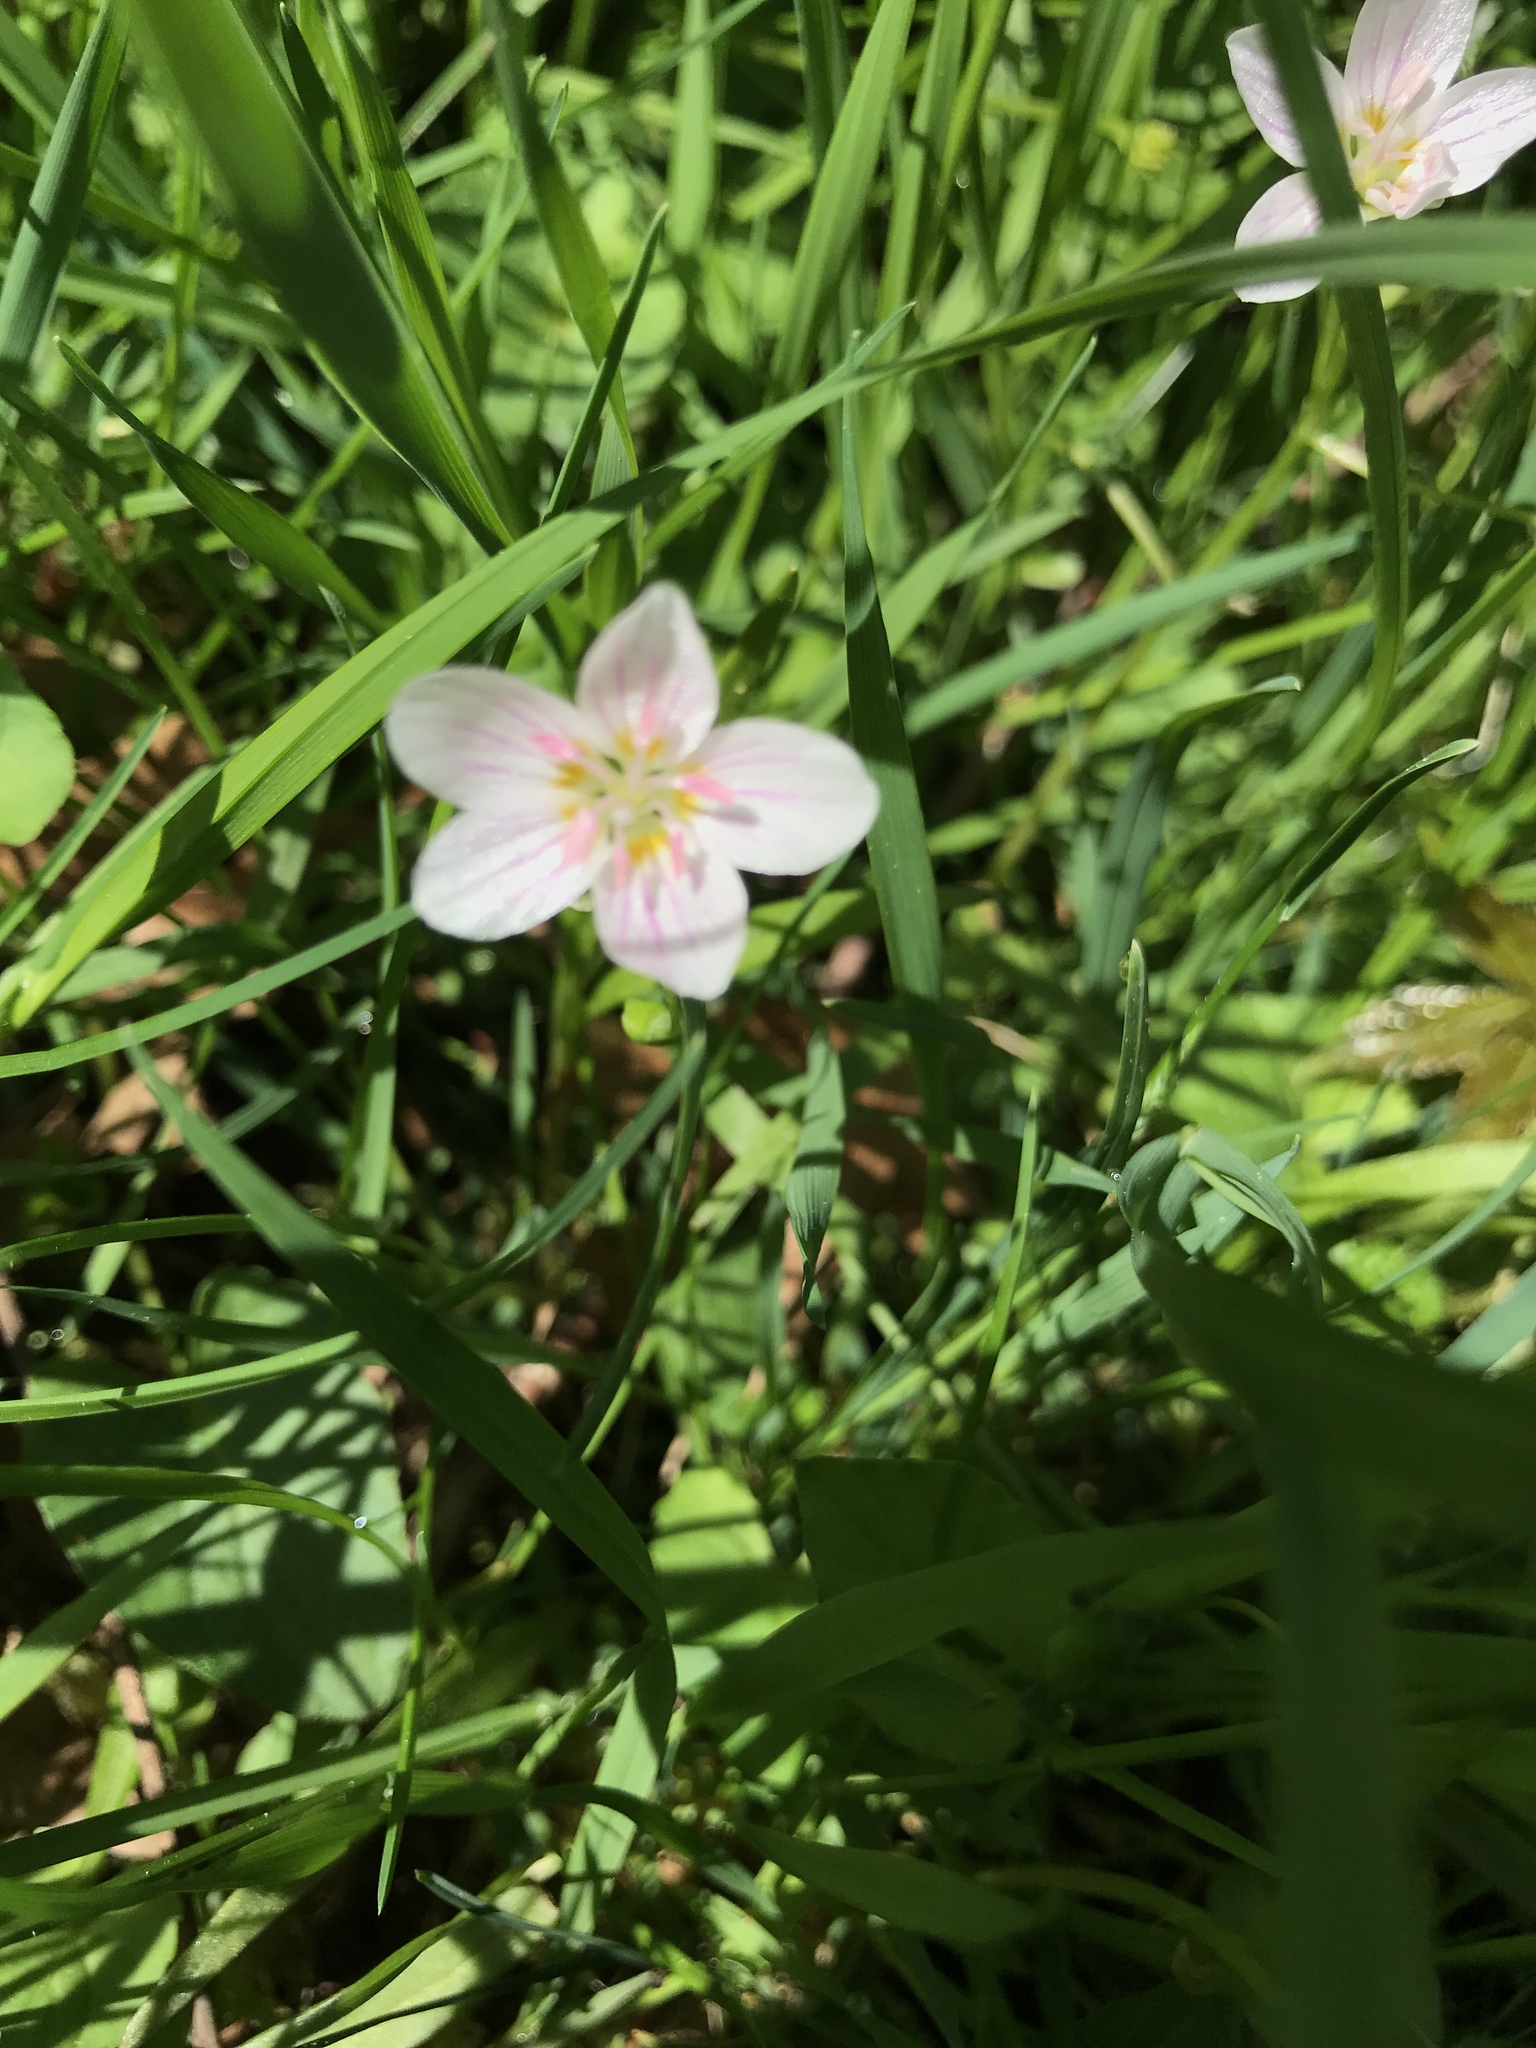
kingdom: Plantae
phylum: Tracheophyta
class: Magnoliopsida
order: Caryophyllales
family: Montiaceae
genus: Claytonia
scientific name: Claytonia virginica
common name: Virginia springbeauty
